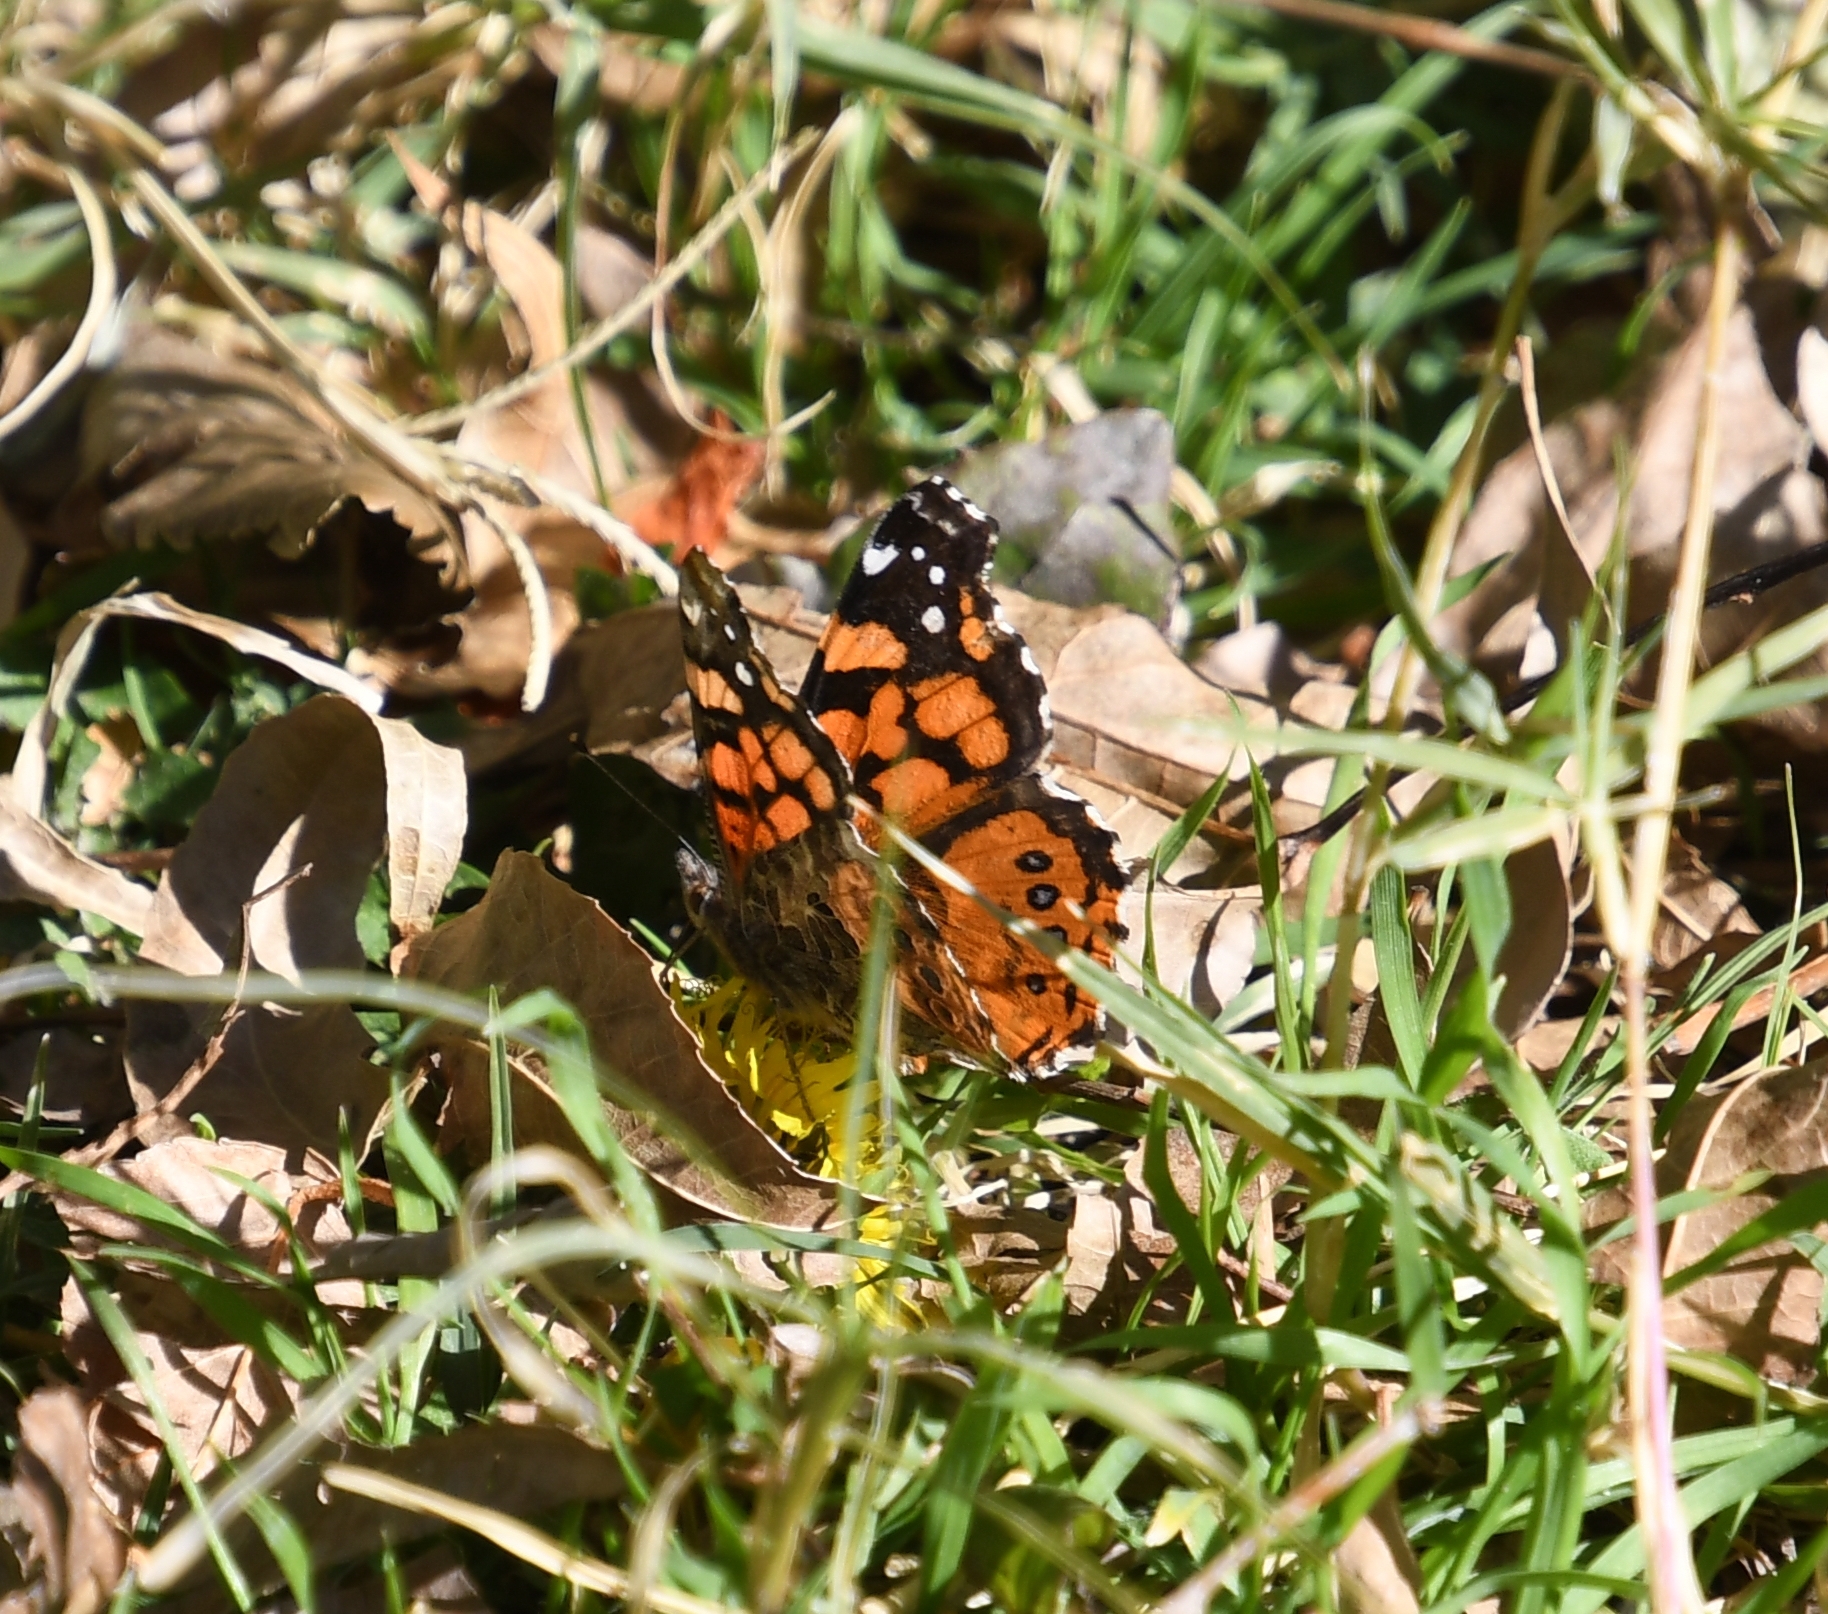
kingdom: Animalia
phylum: Arthropoda
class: Insecta
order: Lepidoptera
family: Nymphalidae
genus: Vanessa
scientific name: Vanessa annabella
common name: West coast lady
